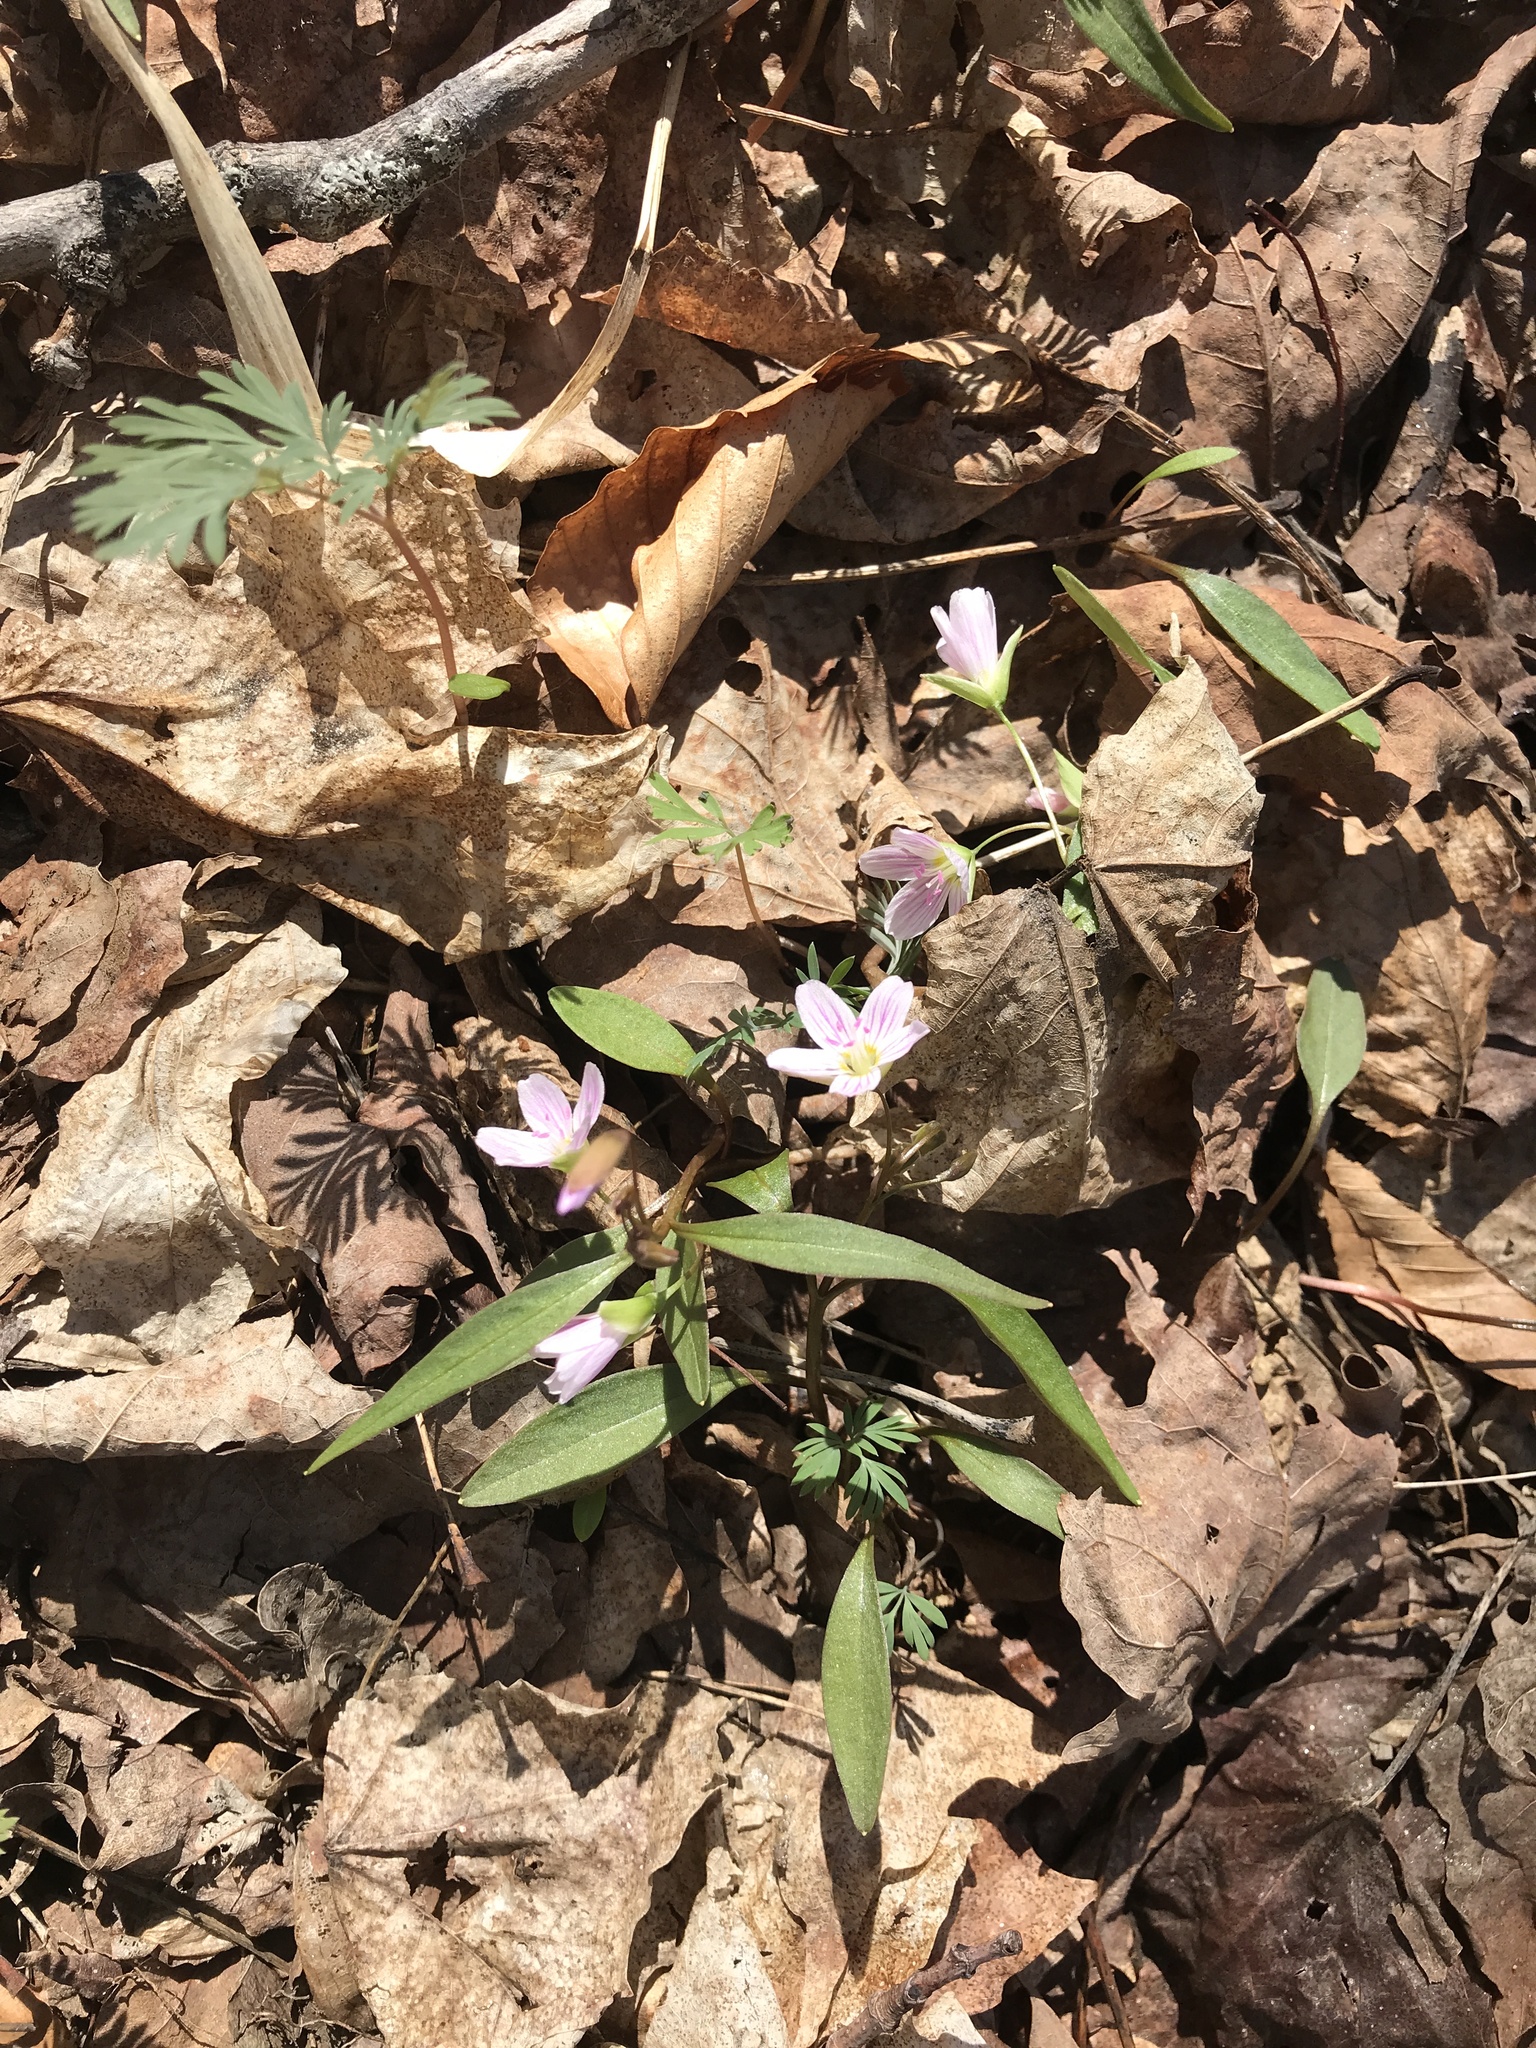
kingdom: Plantae
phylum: Tracheophyta
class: Magnoliopsida
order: Caryophyllales
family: Montiaceae
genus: Claytonia
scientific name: Claytonia caroliniana
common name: Carolina spring beauty
